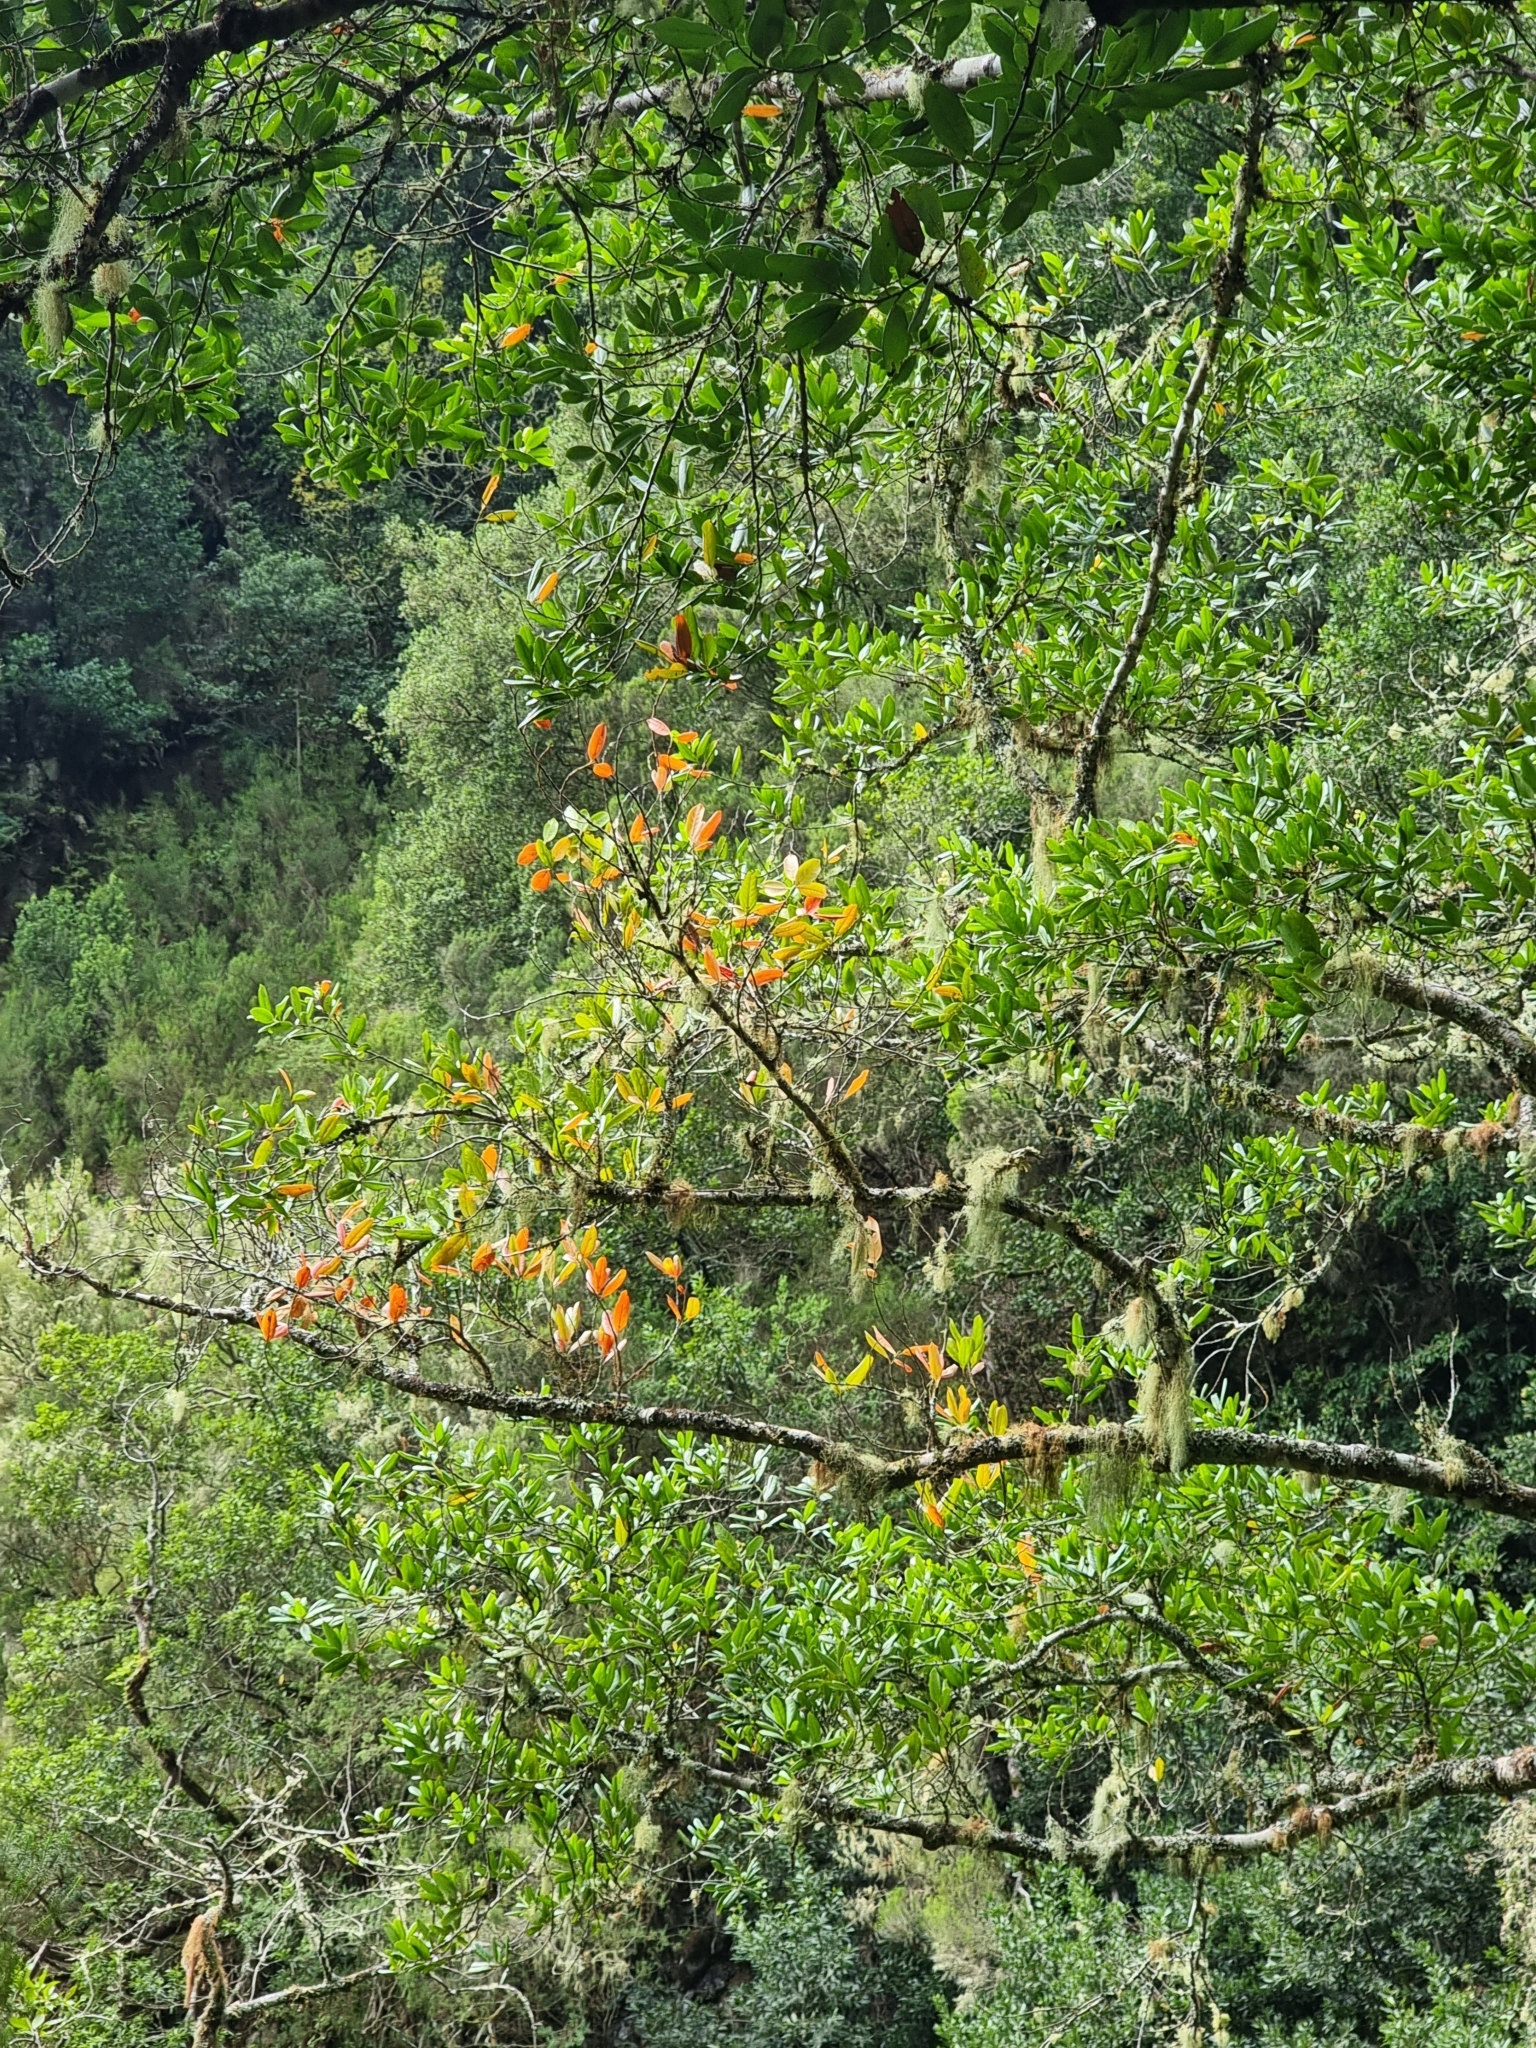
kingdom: Plantae
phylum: Tracheophyta
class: Magnoliopsida
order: Laurales
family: Lauraceae
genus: Mespilodaphne
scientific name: Mespilodaphne foetens
